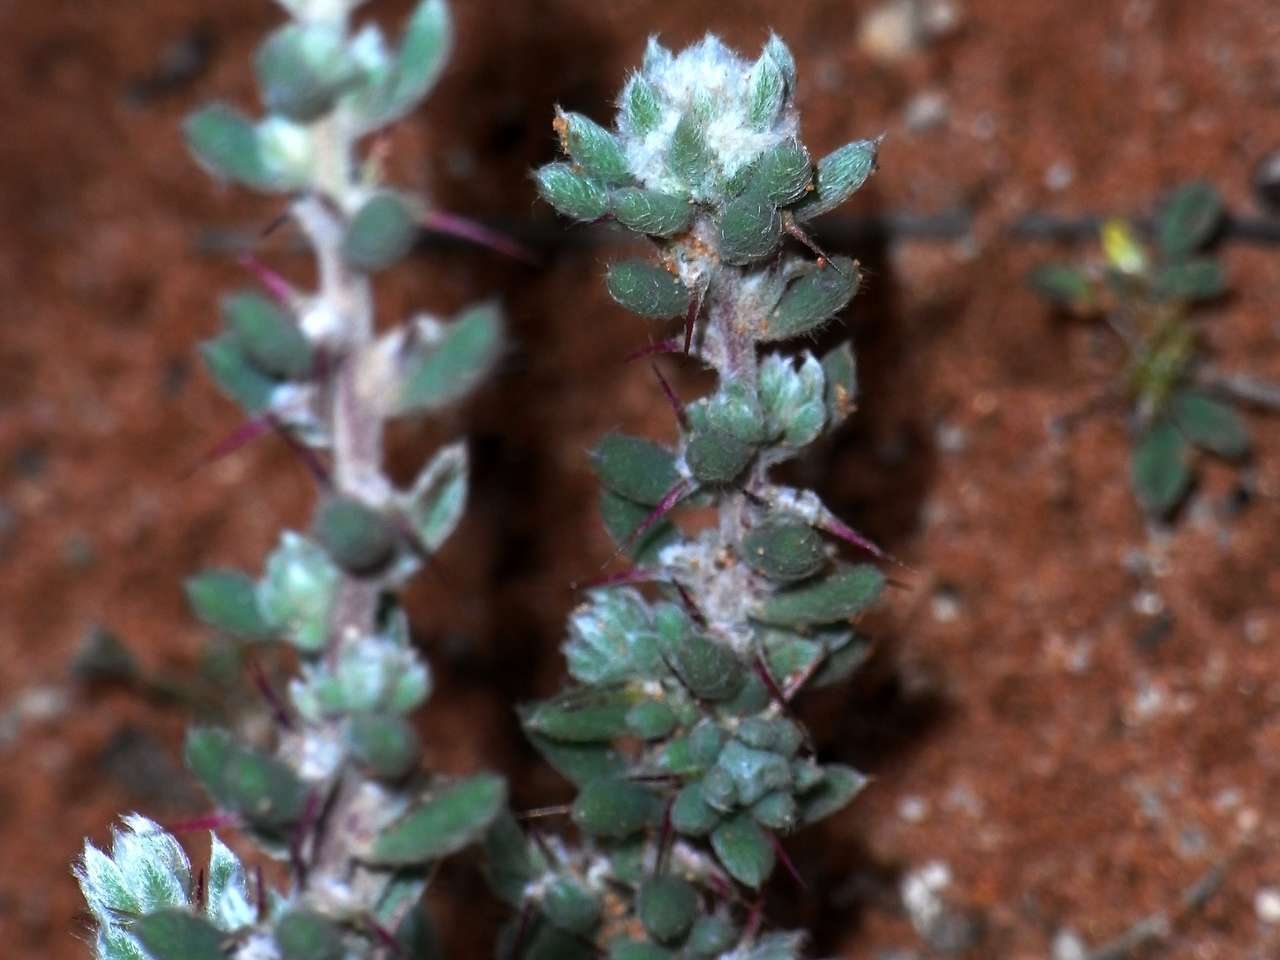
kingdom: Plantae
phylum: Tracheophyta
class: Magnoliopsida
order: Caryophyllales
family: Amaranthaceae
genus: Sclerolaena
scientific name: Sclerolaena obliquicuspis
